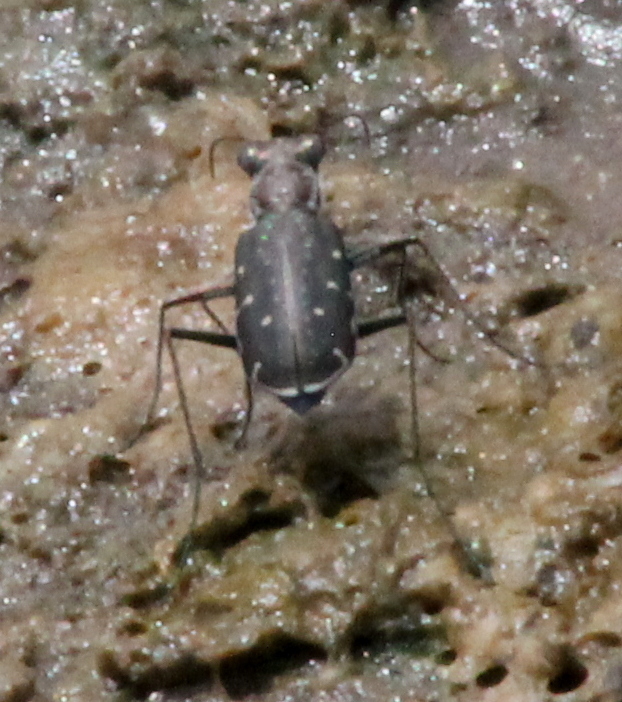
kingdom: Animalia
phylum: Arthropoda
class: Insecta
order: Coleoptera
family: Carabidae
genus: Cicindela
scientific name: Cicindela punctulata
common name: Punctured tiger beetle
